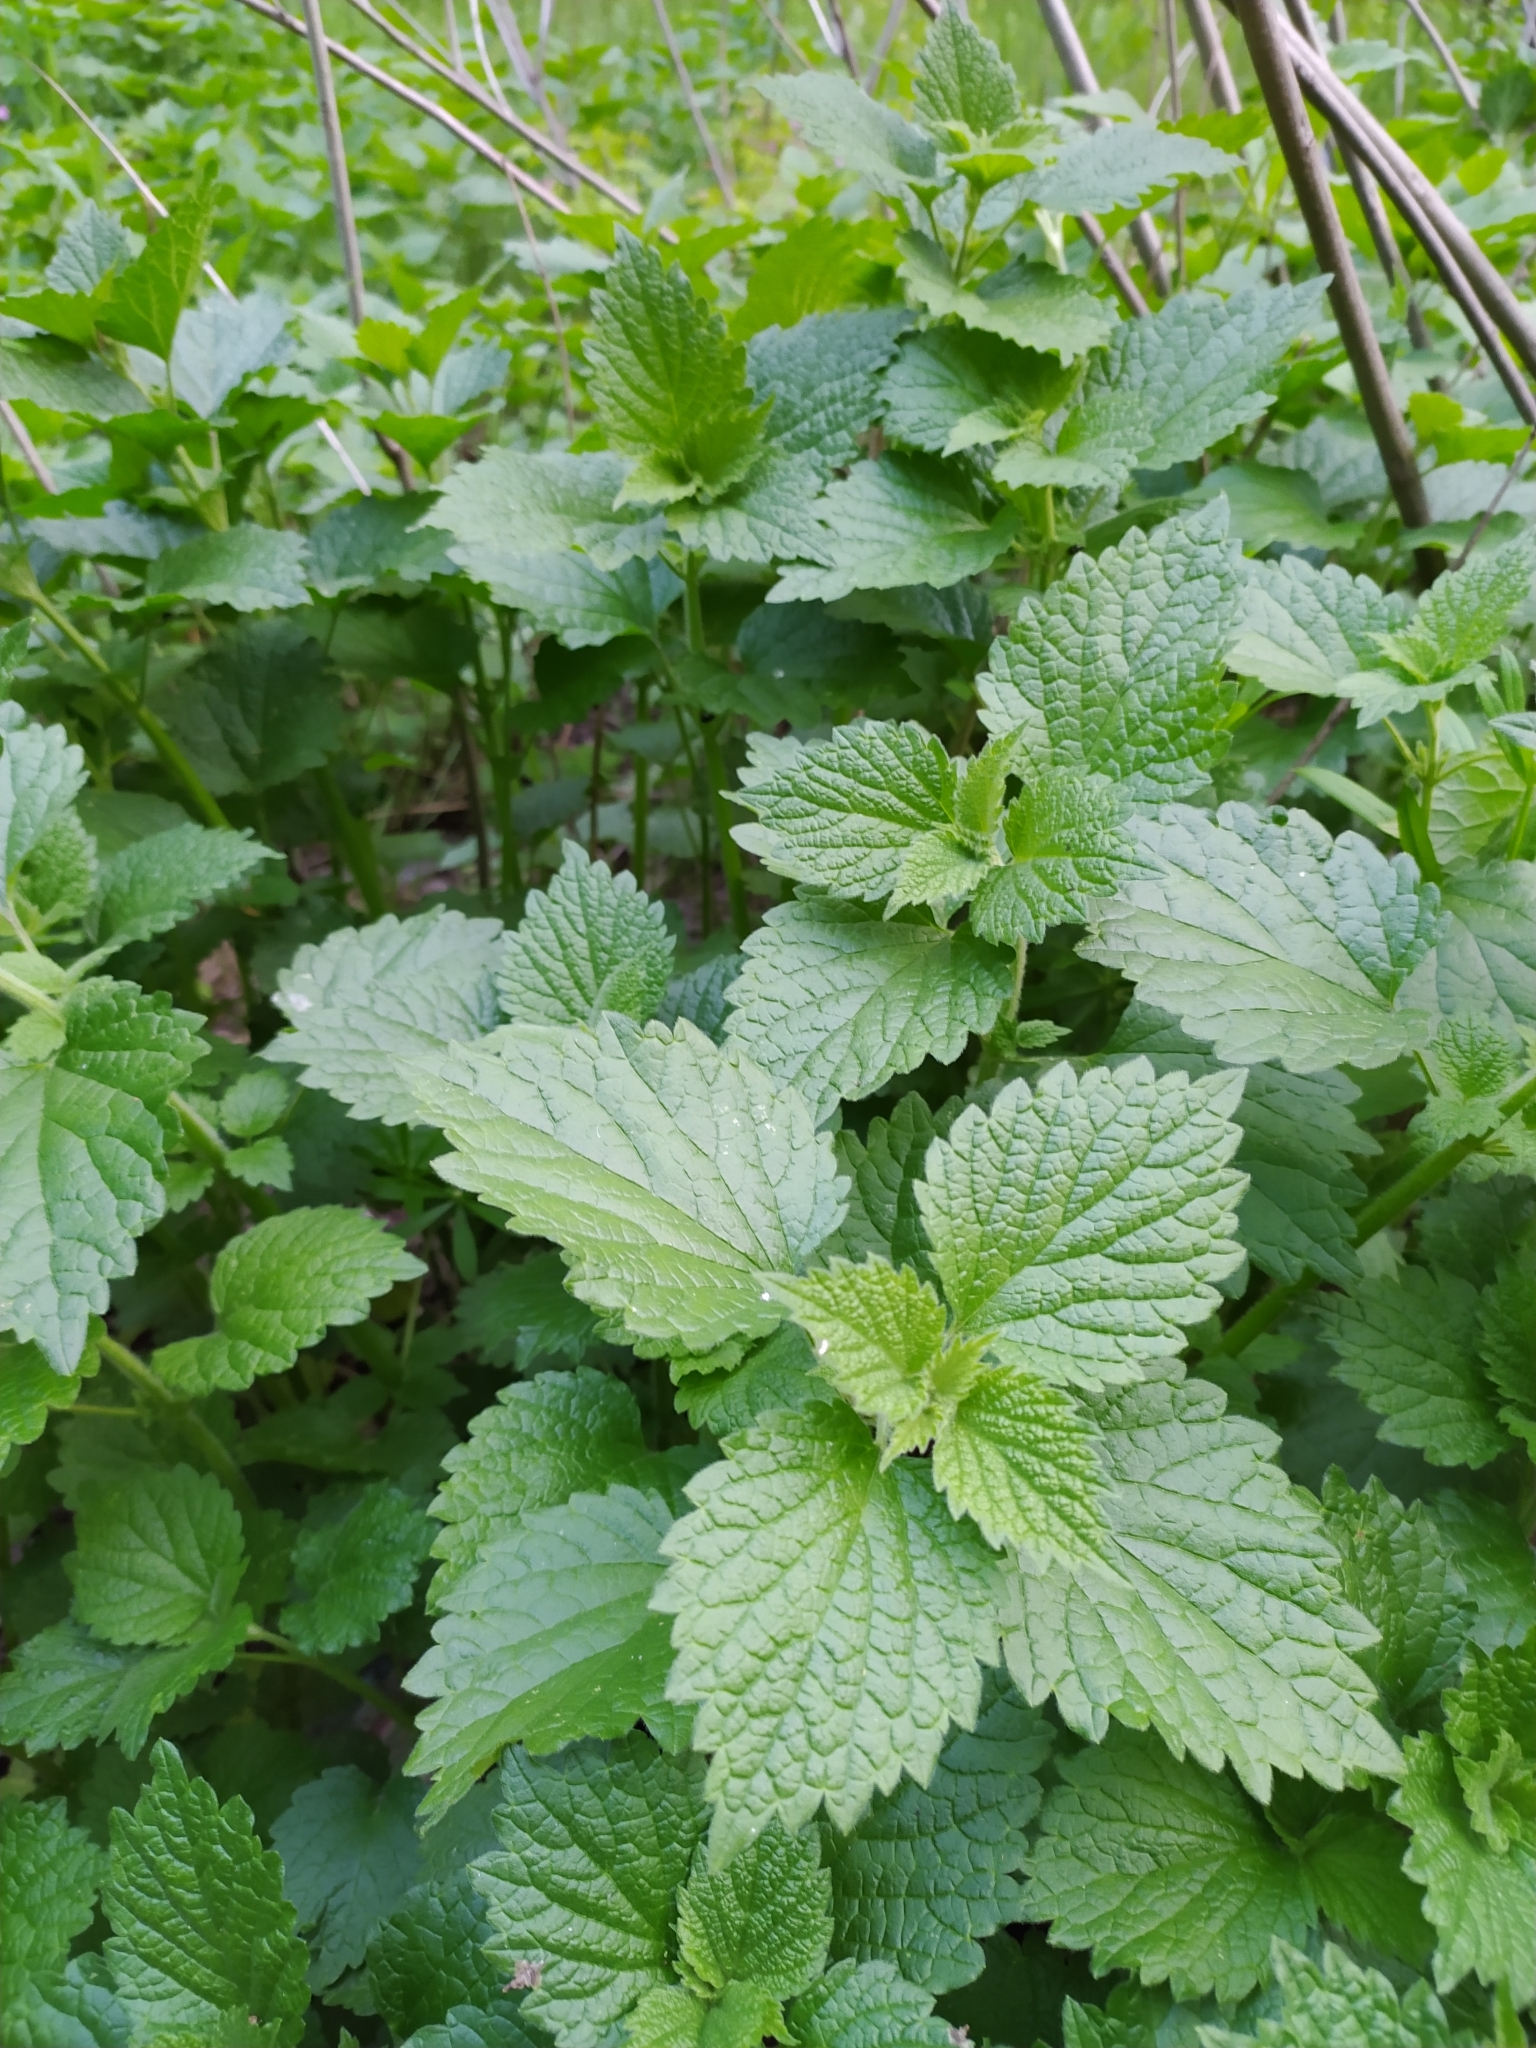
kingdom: Plantae
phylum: Tracheophyta
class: Magnoliopsida
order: Lamiales
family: Lamiaceae
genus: Ballota
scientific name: Ballota nigra
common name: Black horehound
